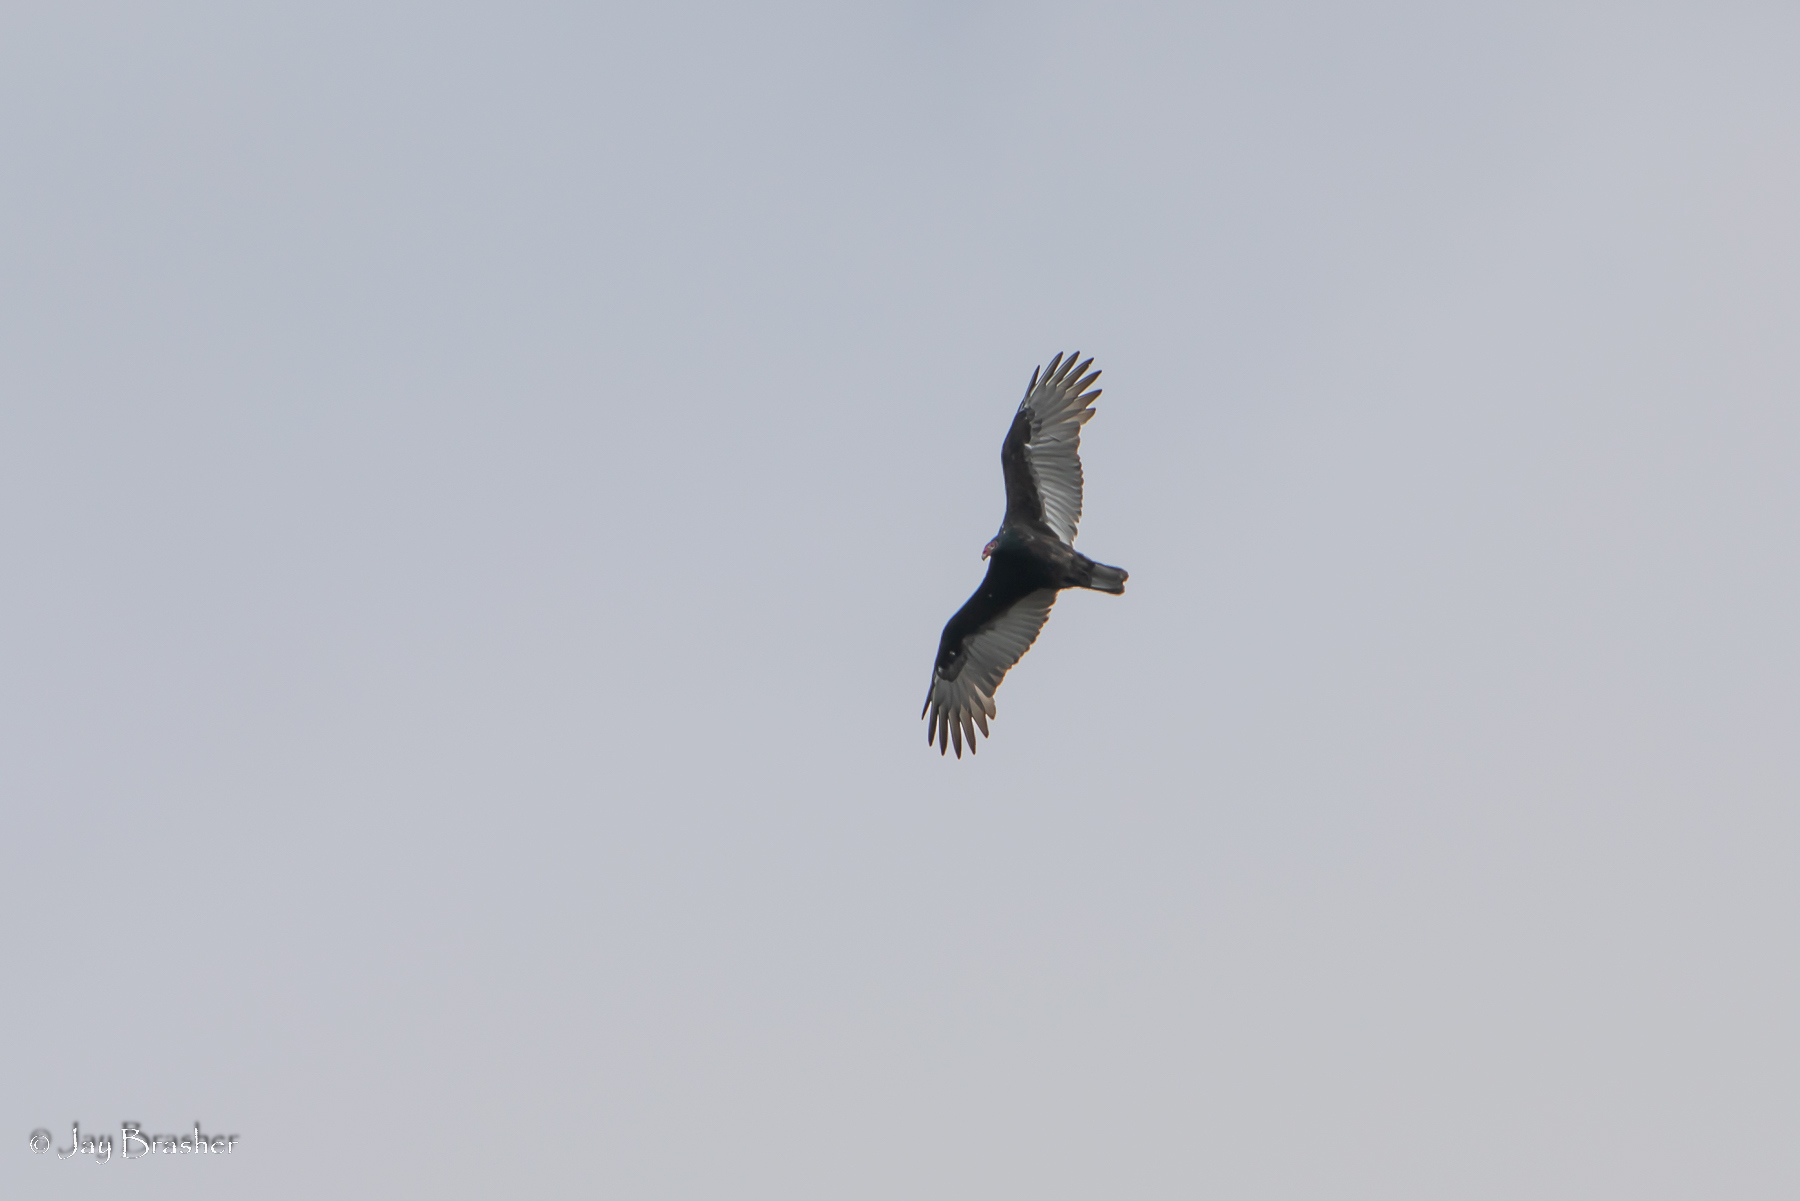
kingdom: Animalia
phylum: Chordata
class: Aves
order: Accipitriformes
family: Cathartidae
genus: Cathartes
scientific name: Cathartes aura
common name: Turkey vulture
